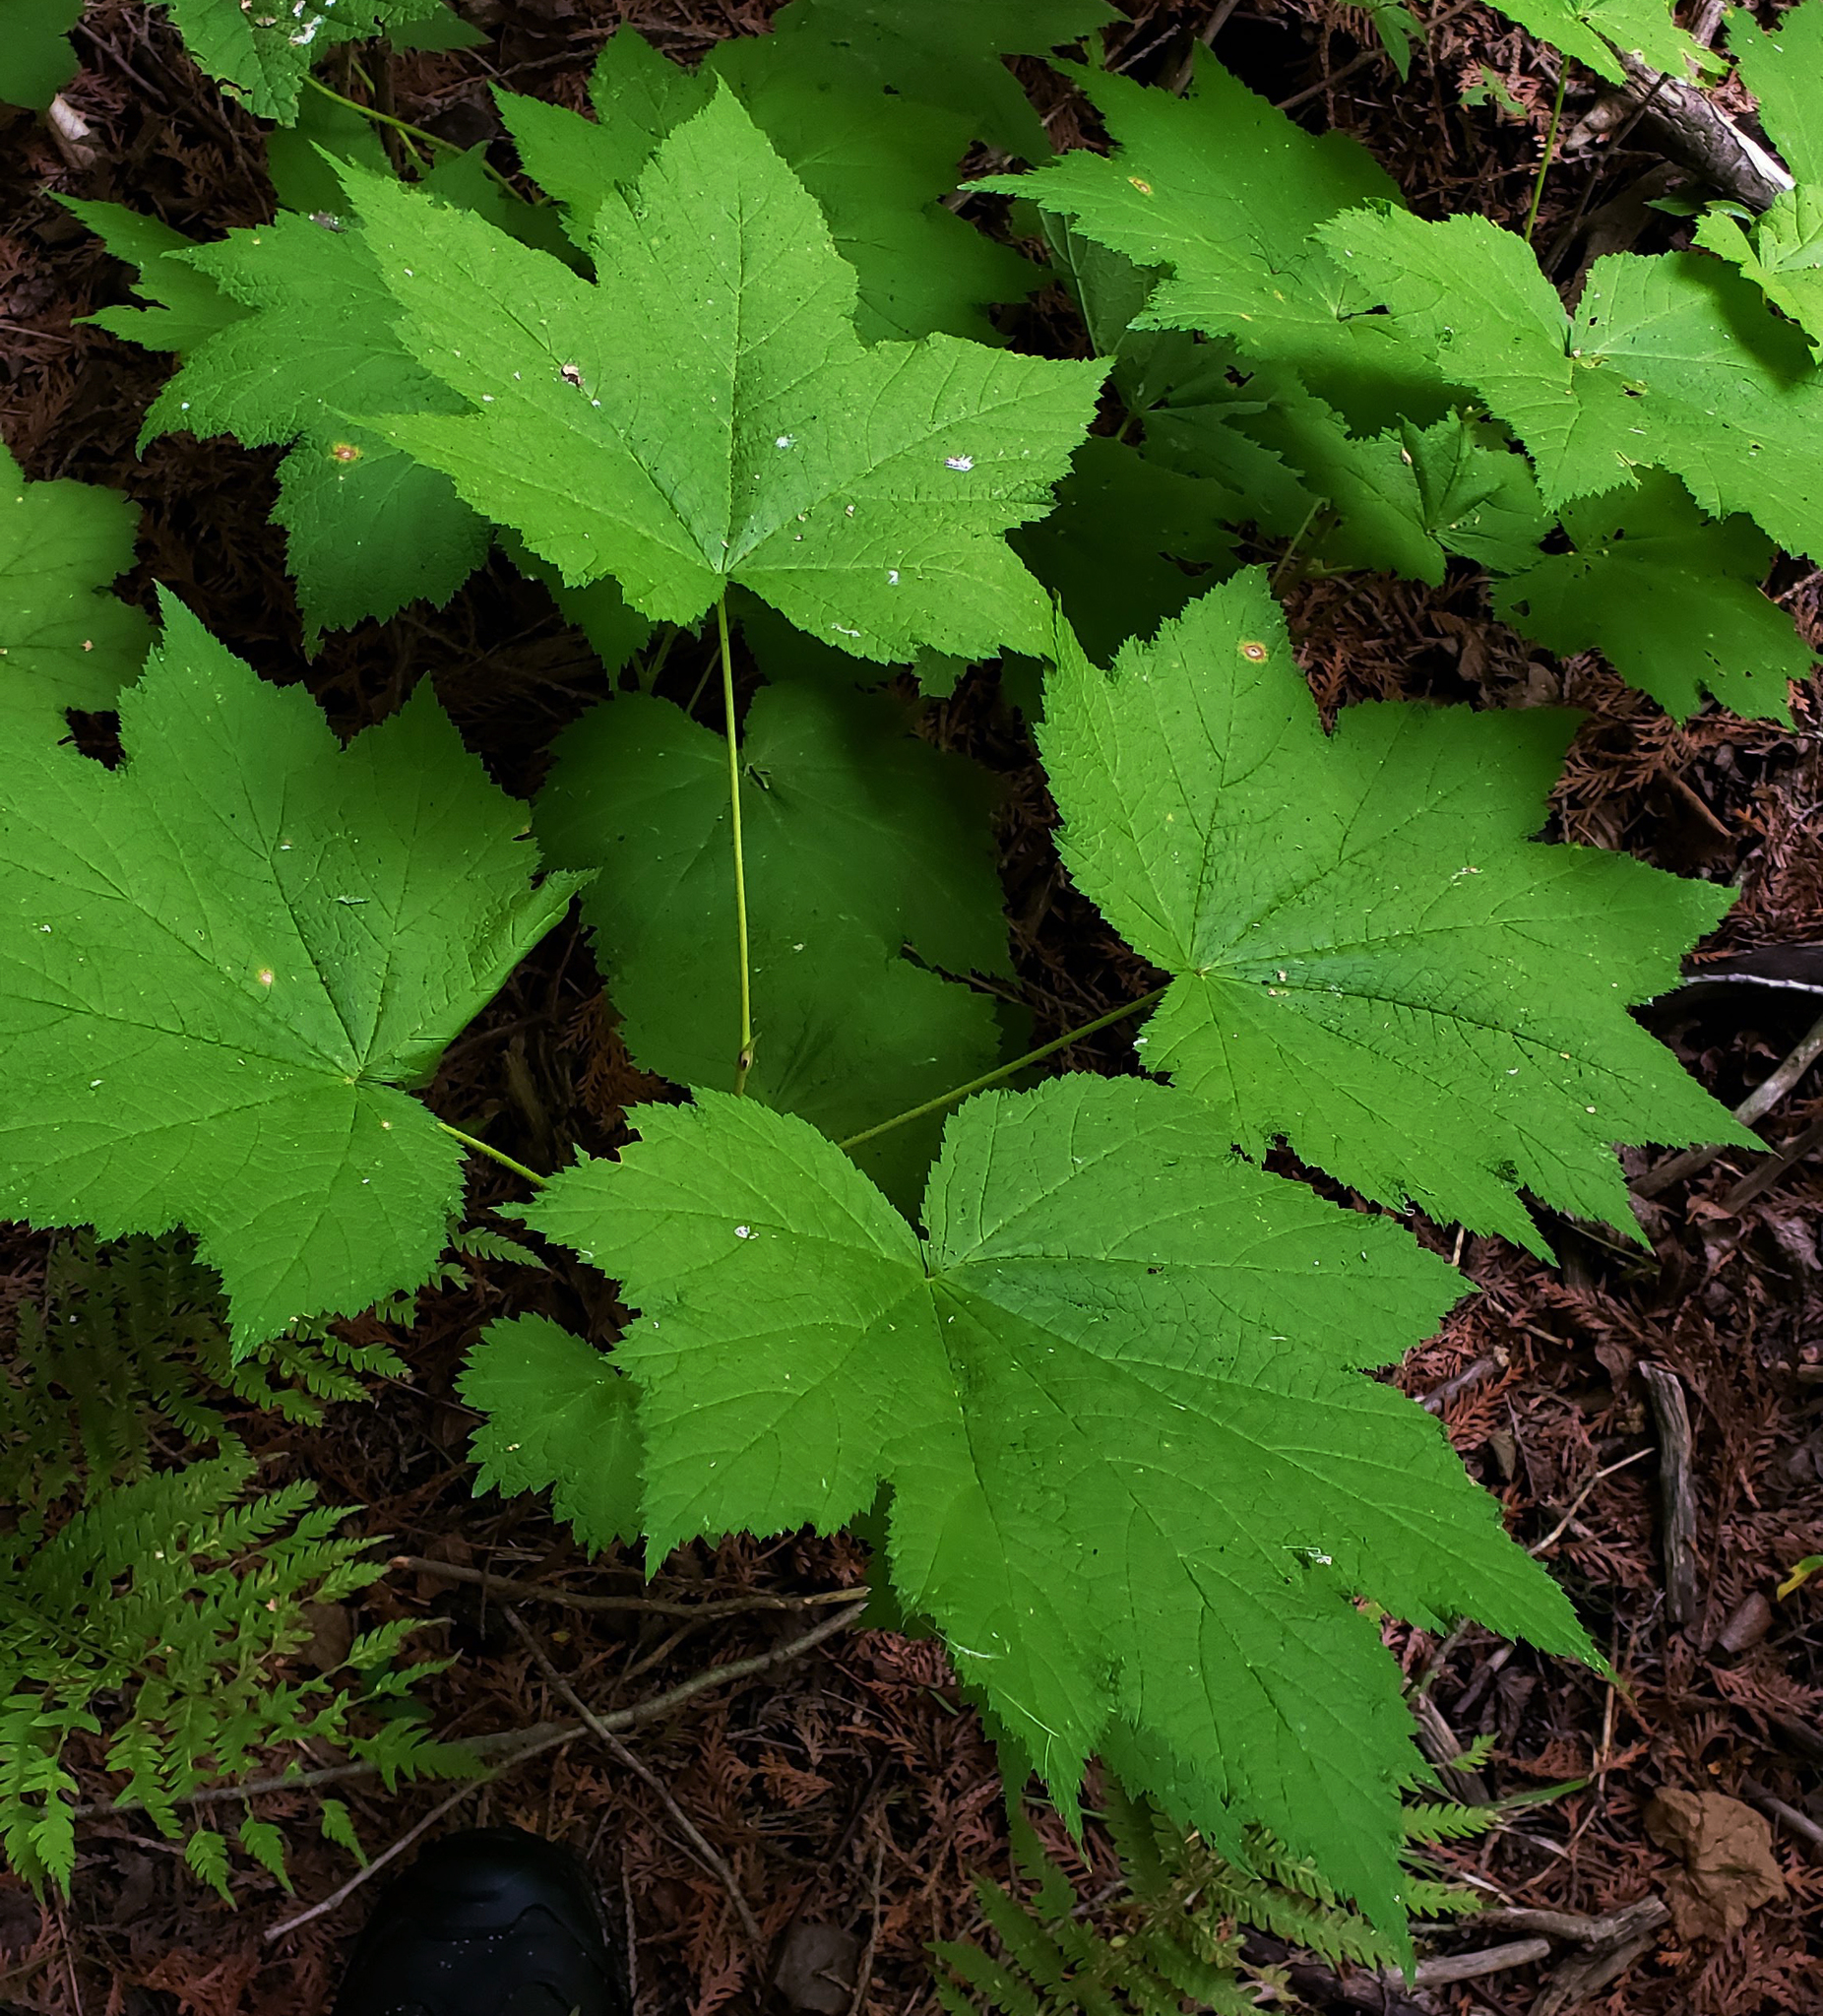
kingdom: Plantae
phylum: Tracheophyta
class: Magnoliopsida
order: Rosales
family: Rosaceae
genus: Rubus
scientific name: Rubus parviflorus
